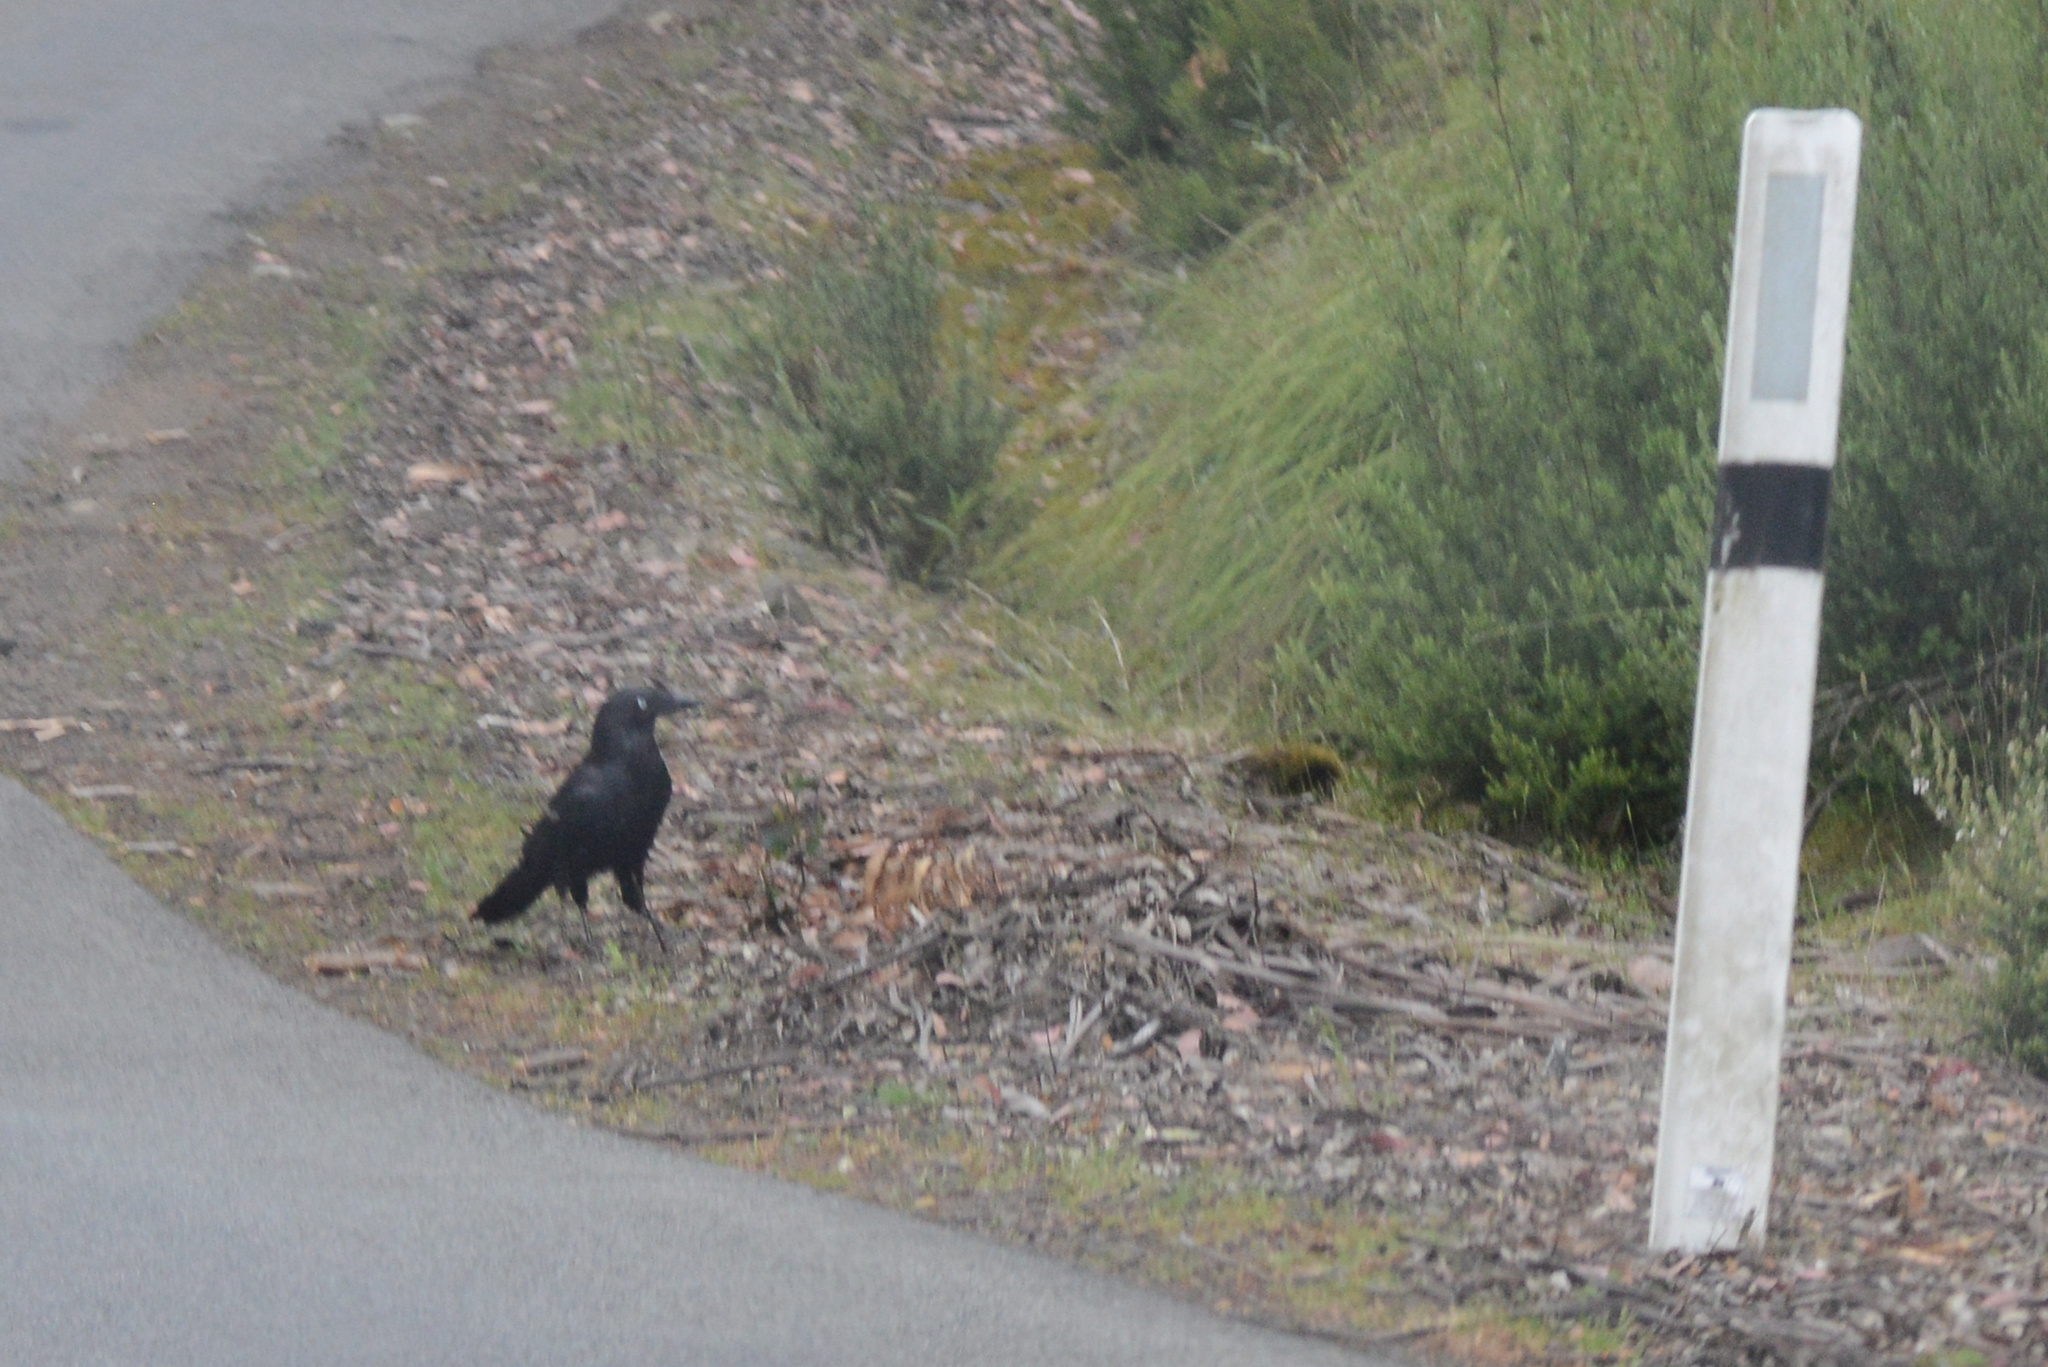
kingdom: Animalia
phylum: Chordata
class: Aves
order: Passeriformes
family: Corvidae
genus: Corvus
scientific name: Corvus tasmanicus
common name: Forest raven
